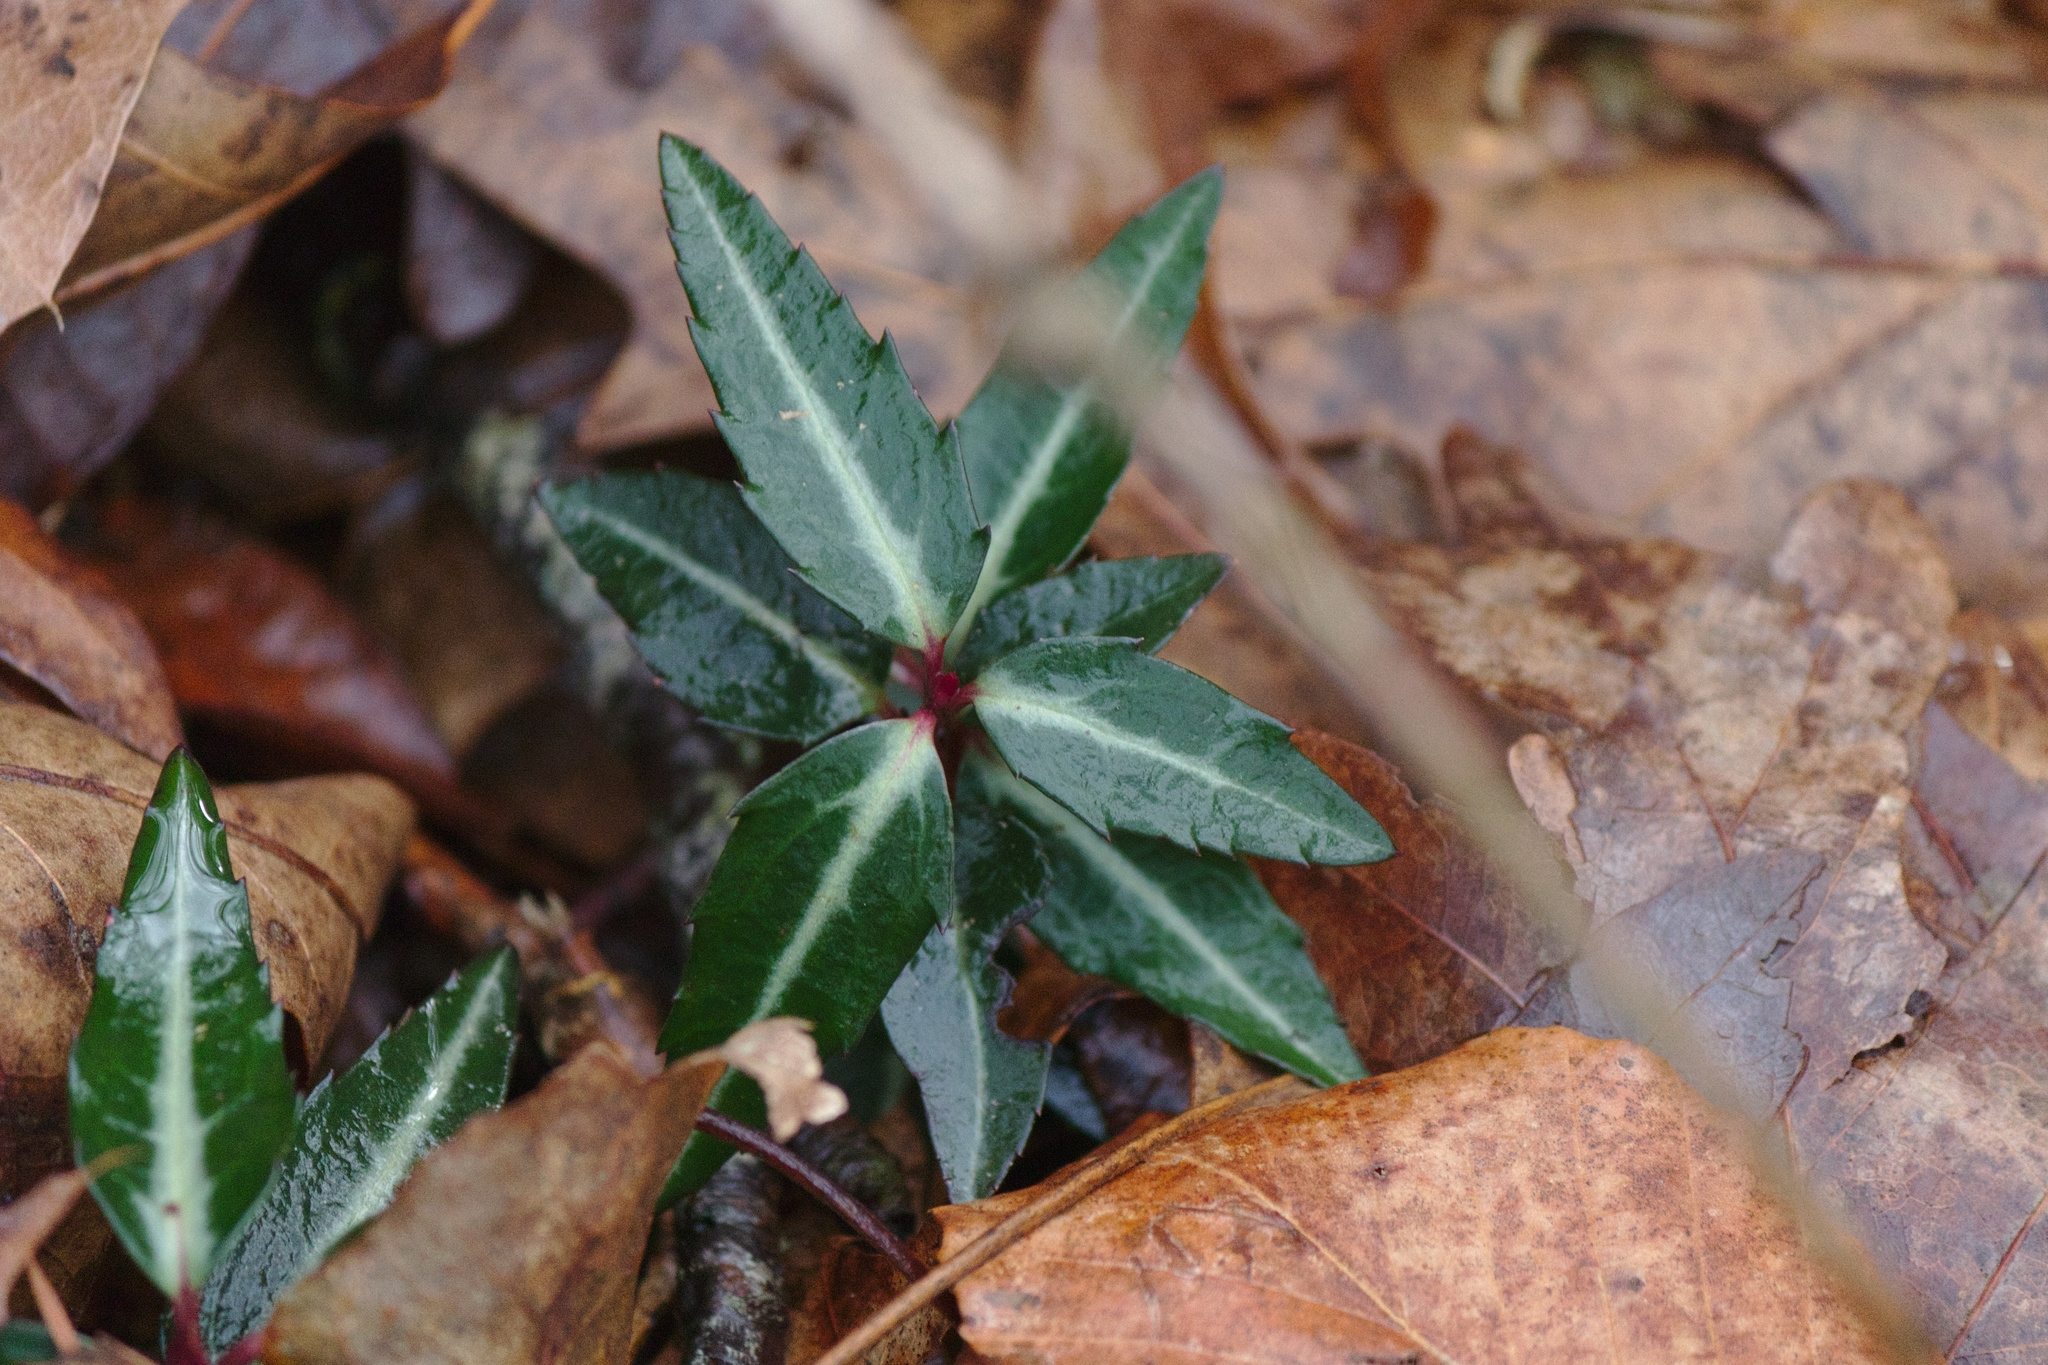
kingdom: Plantae
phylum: Tracheophyta
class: Magnoliopsida
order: Ericales
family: Ericaceae
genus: Chimaphila
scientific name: Chimaphila maculata
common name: Spotted pipsissewa
